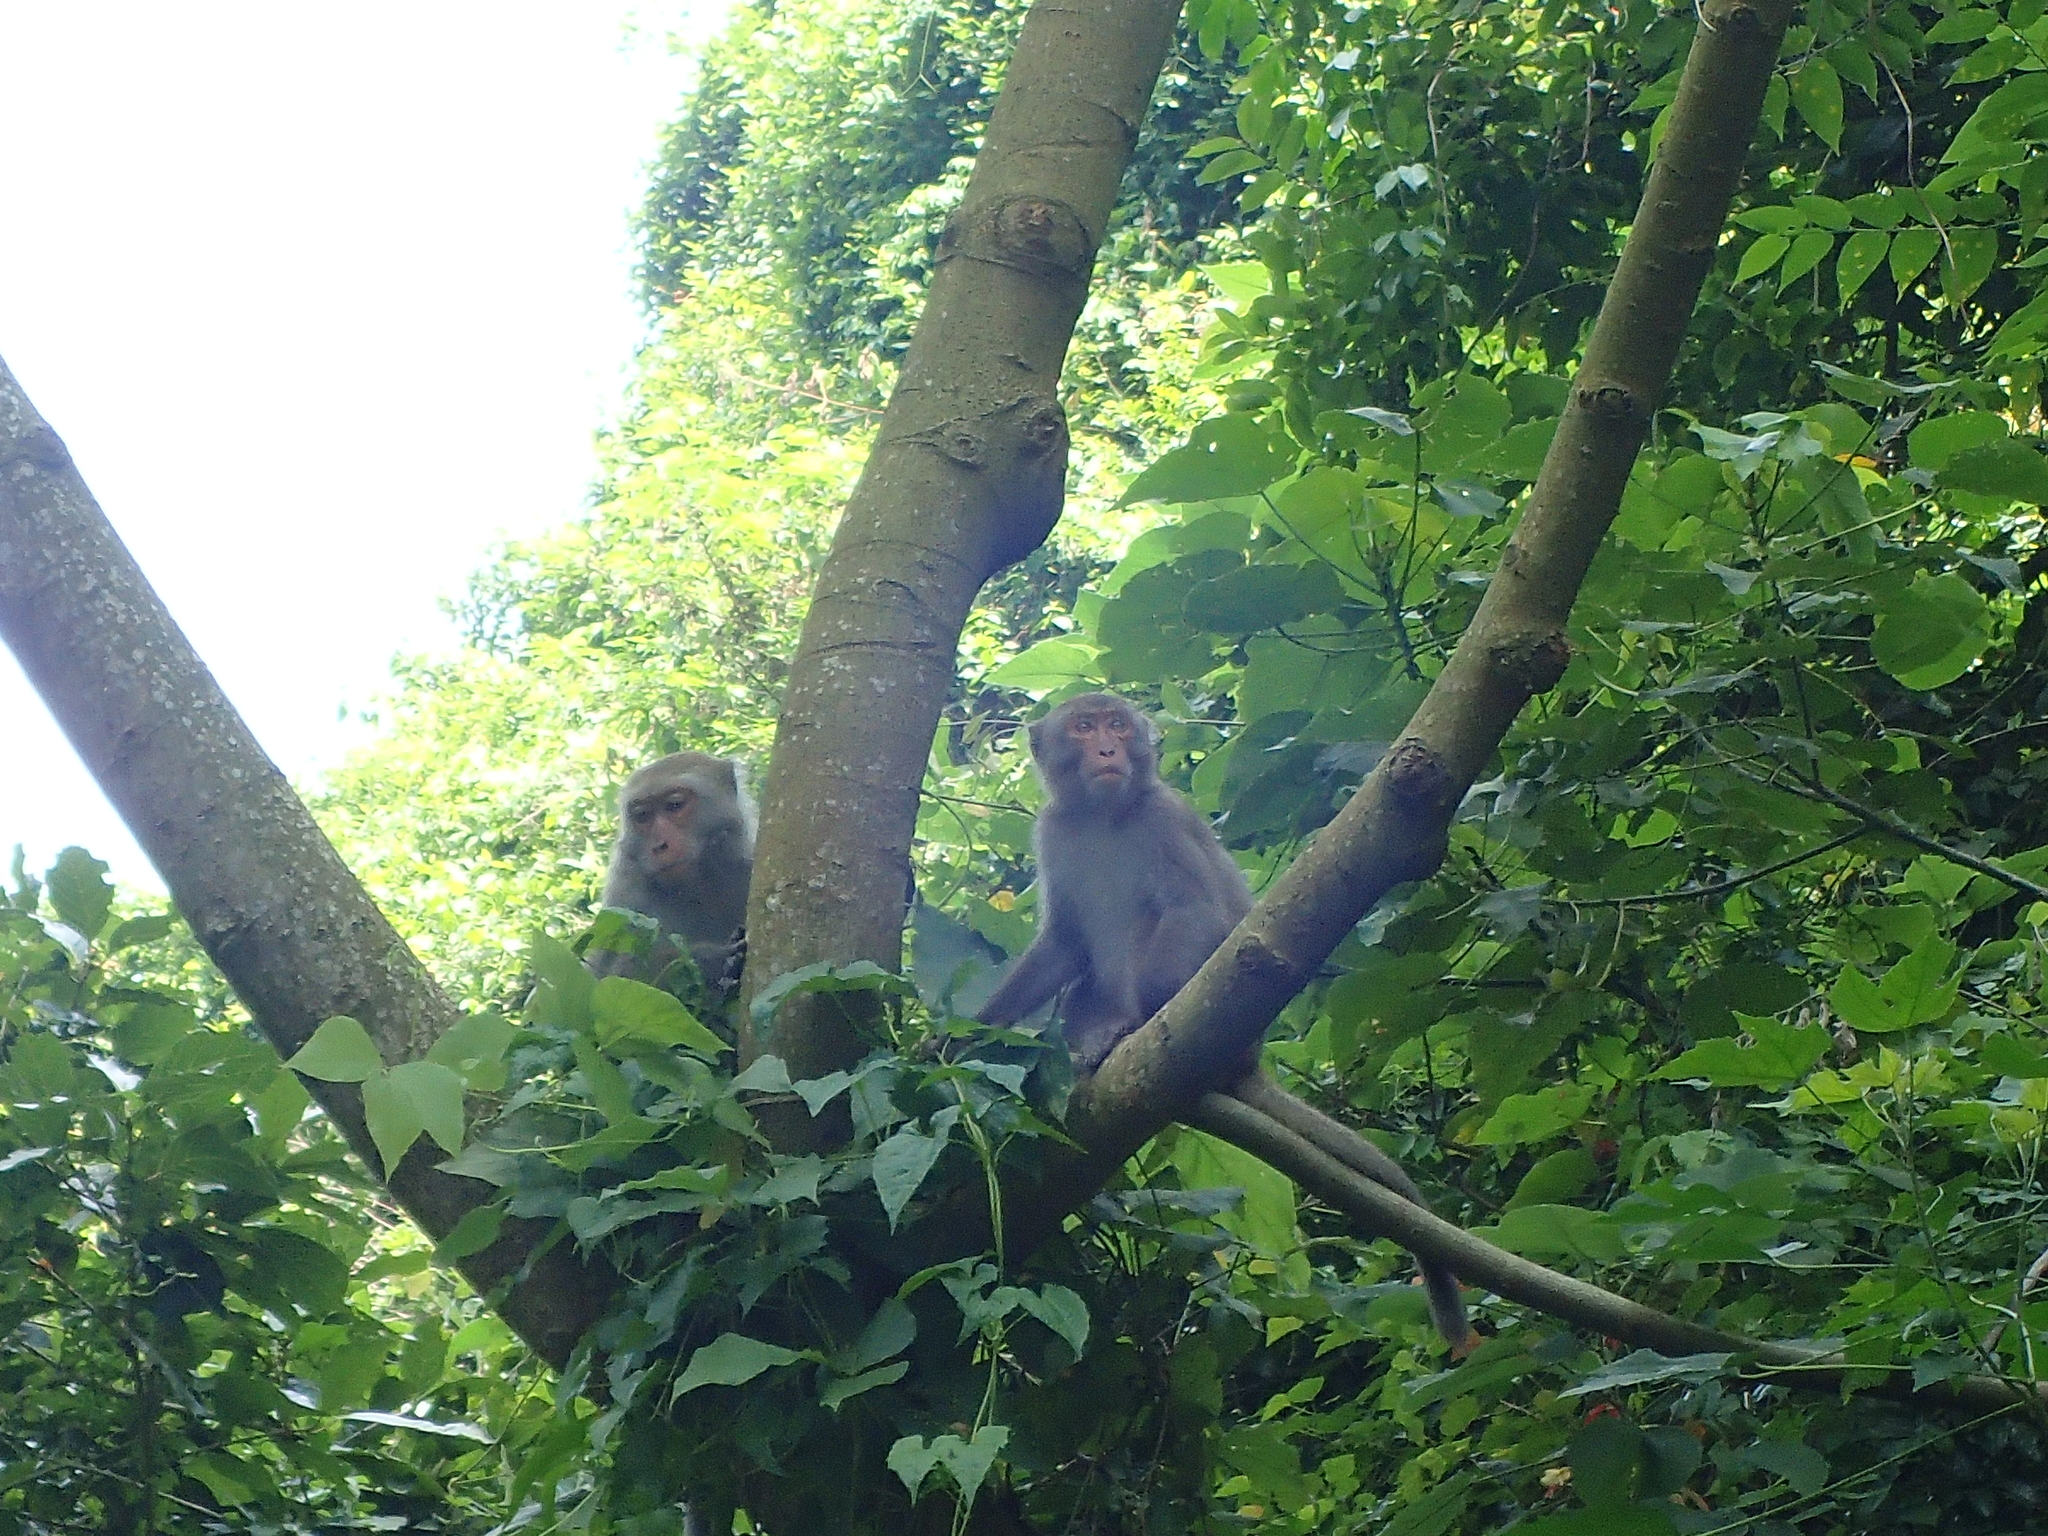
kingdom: Animalia
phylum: Chordata
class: Mammalia
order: Primates
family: Cercopithecidae
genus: Macaca
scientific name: Macaca cyclopis
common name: Formosan rock macaque
